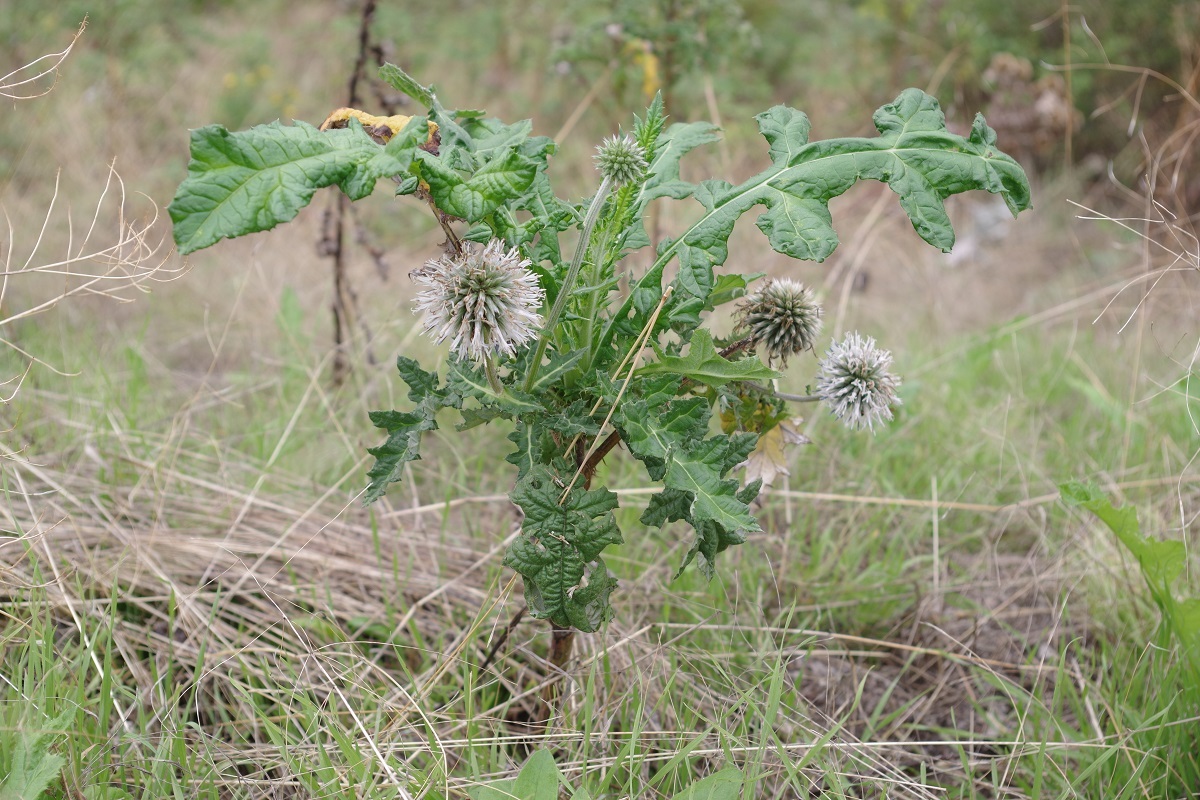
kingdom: Plantae
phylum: Tracheophyta
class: Magnoliopsida
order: Asterales
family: Asteraceae
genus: Echinops
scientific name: Echinops sphaerocephalus
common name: Glandular globe-thistle
